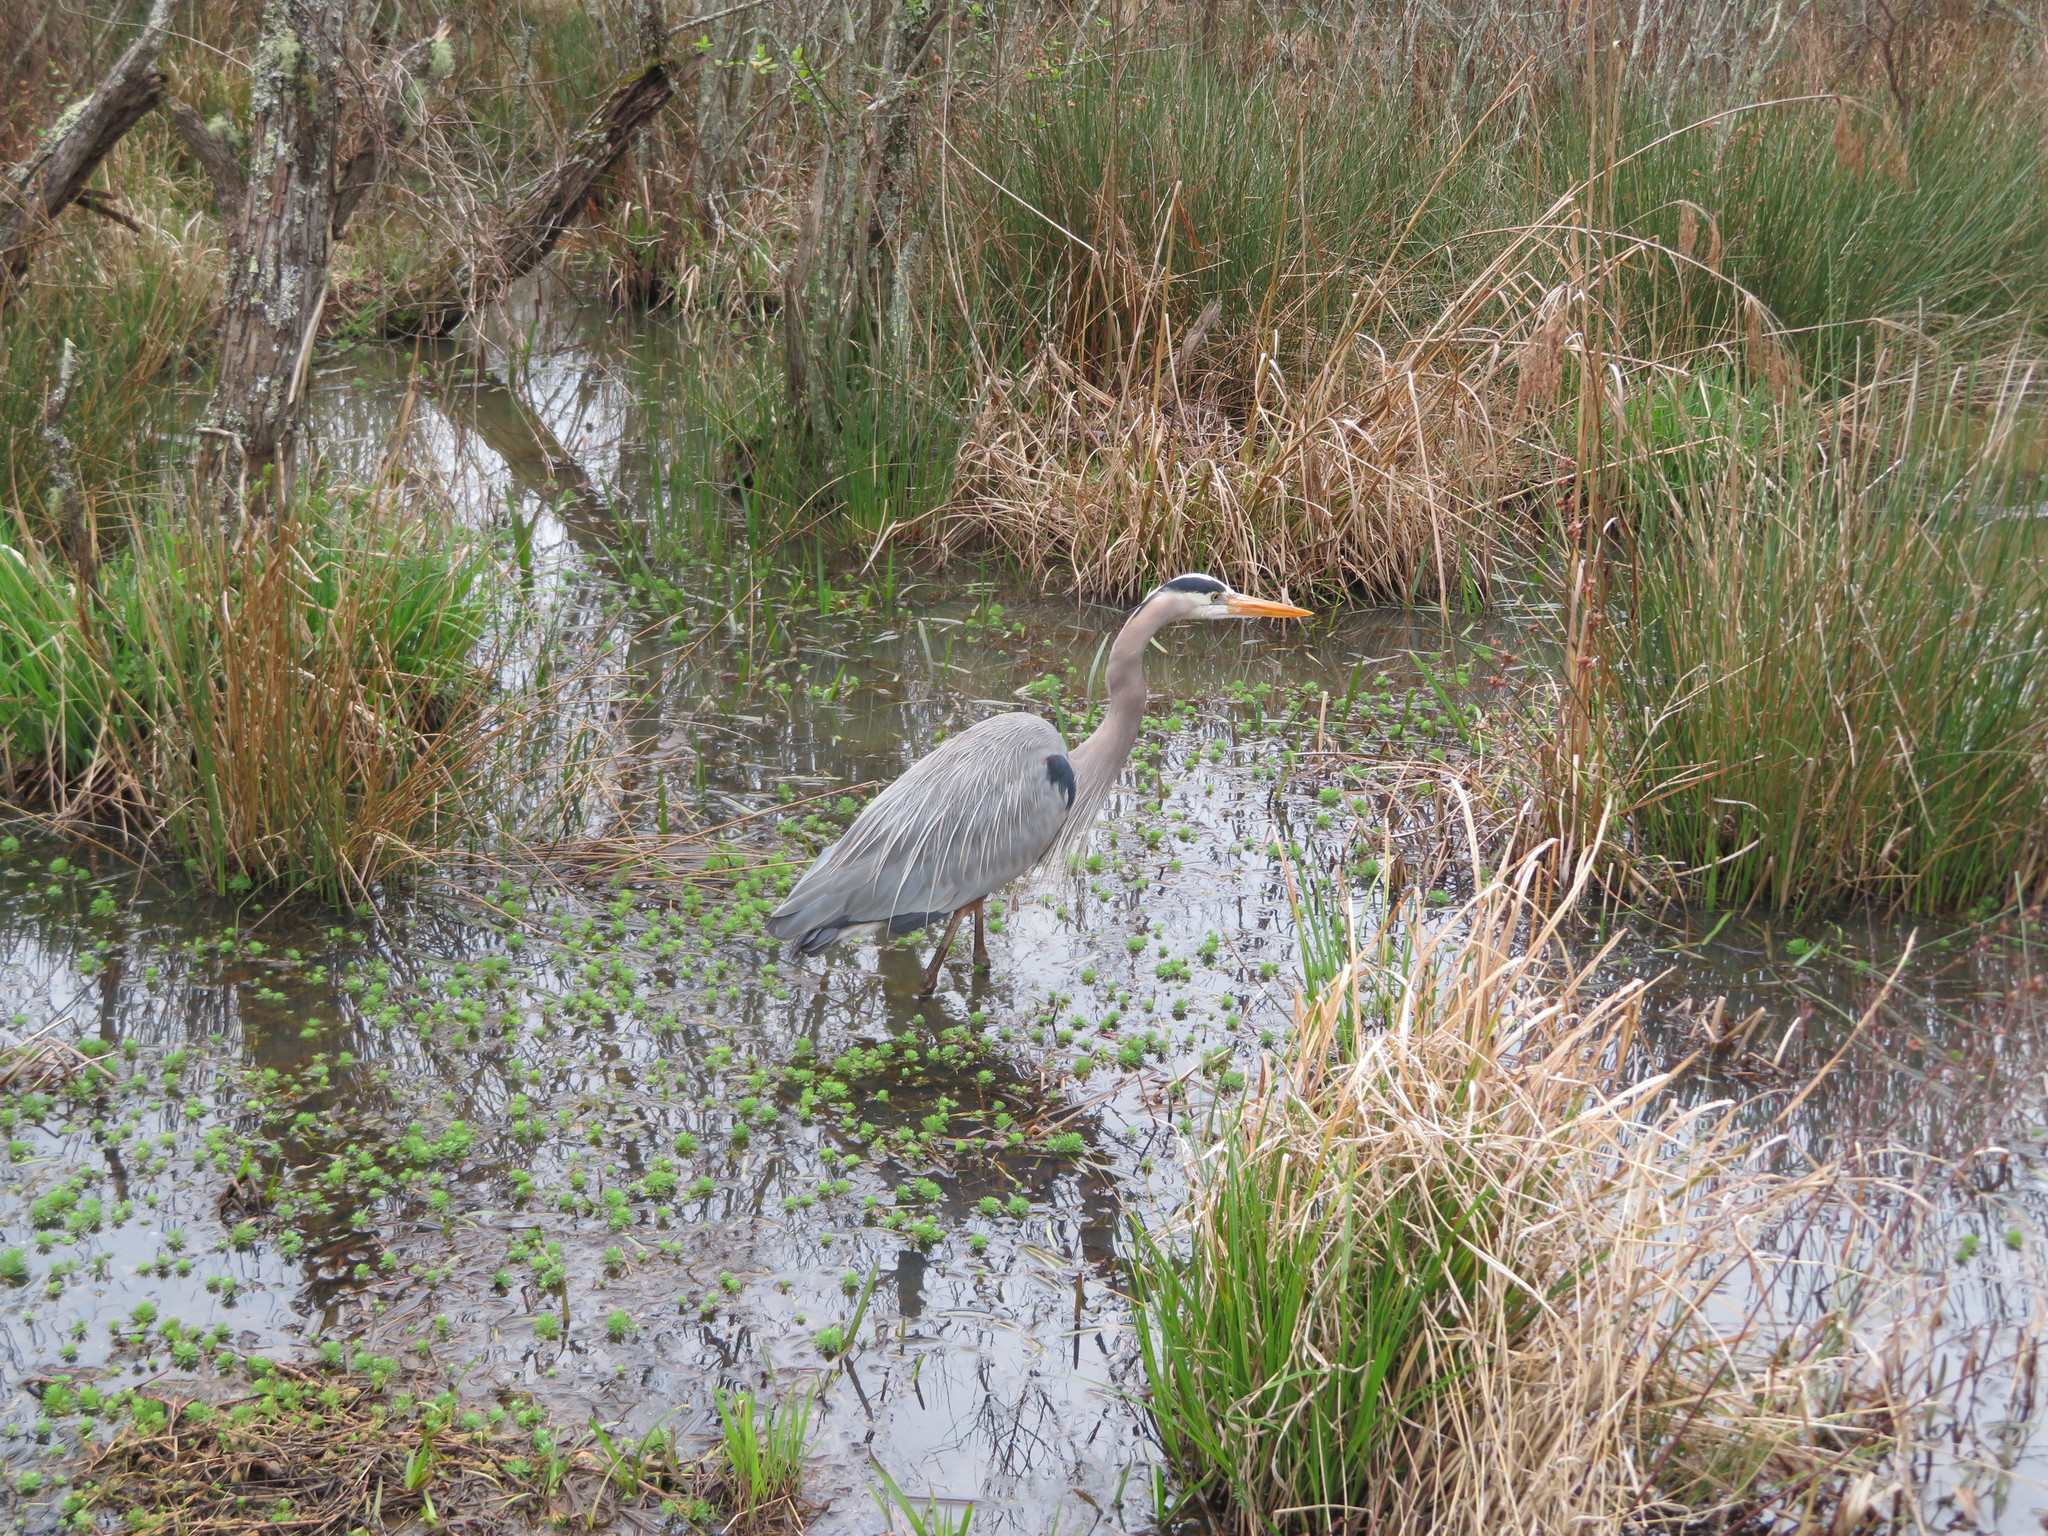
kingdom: Animalia
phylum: Chordata
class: Aves
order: Pelecaniformes
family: Ardeidae
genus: Ardea
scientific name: Ardea herodias
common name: Great blue heron
